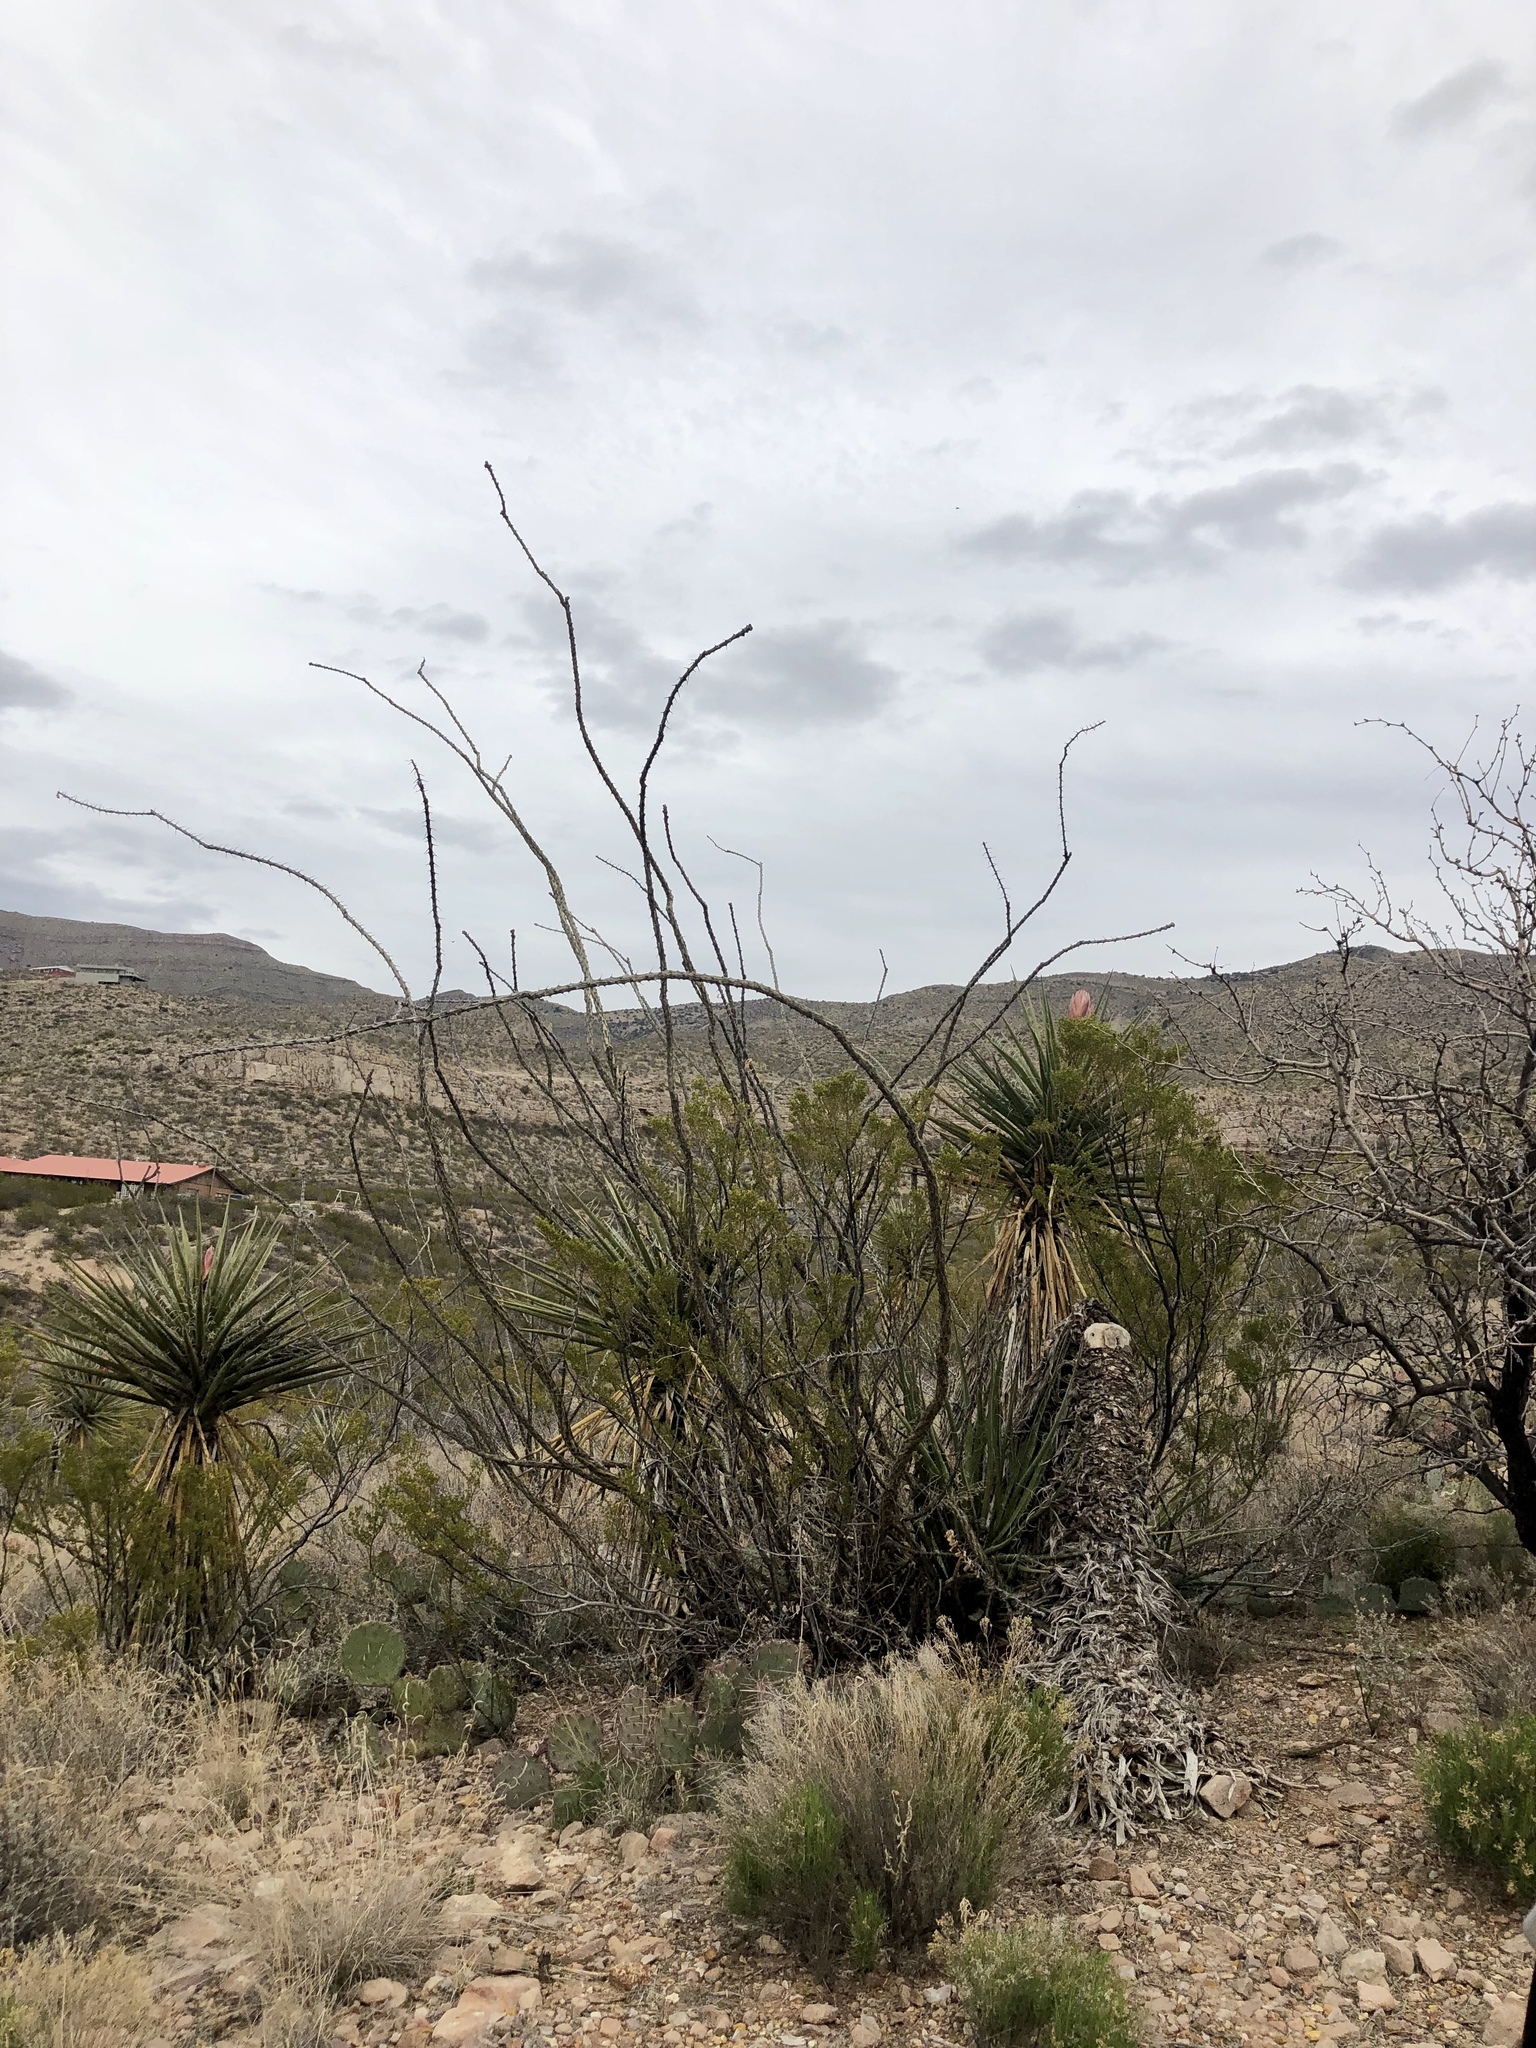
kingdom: Plantae
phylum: Tracheophyta
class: Magnoliopsida
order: Ericales
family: Fouquieriaceae
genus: Fouquieria
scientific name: Fouquieria splendens
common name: Vine-cactus
